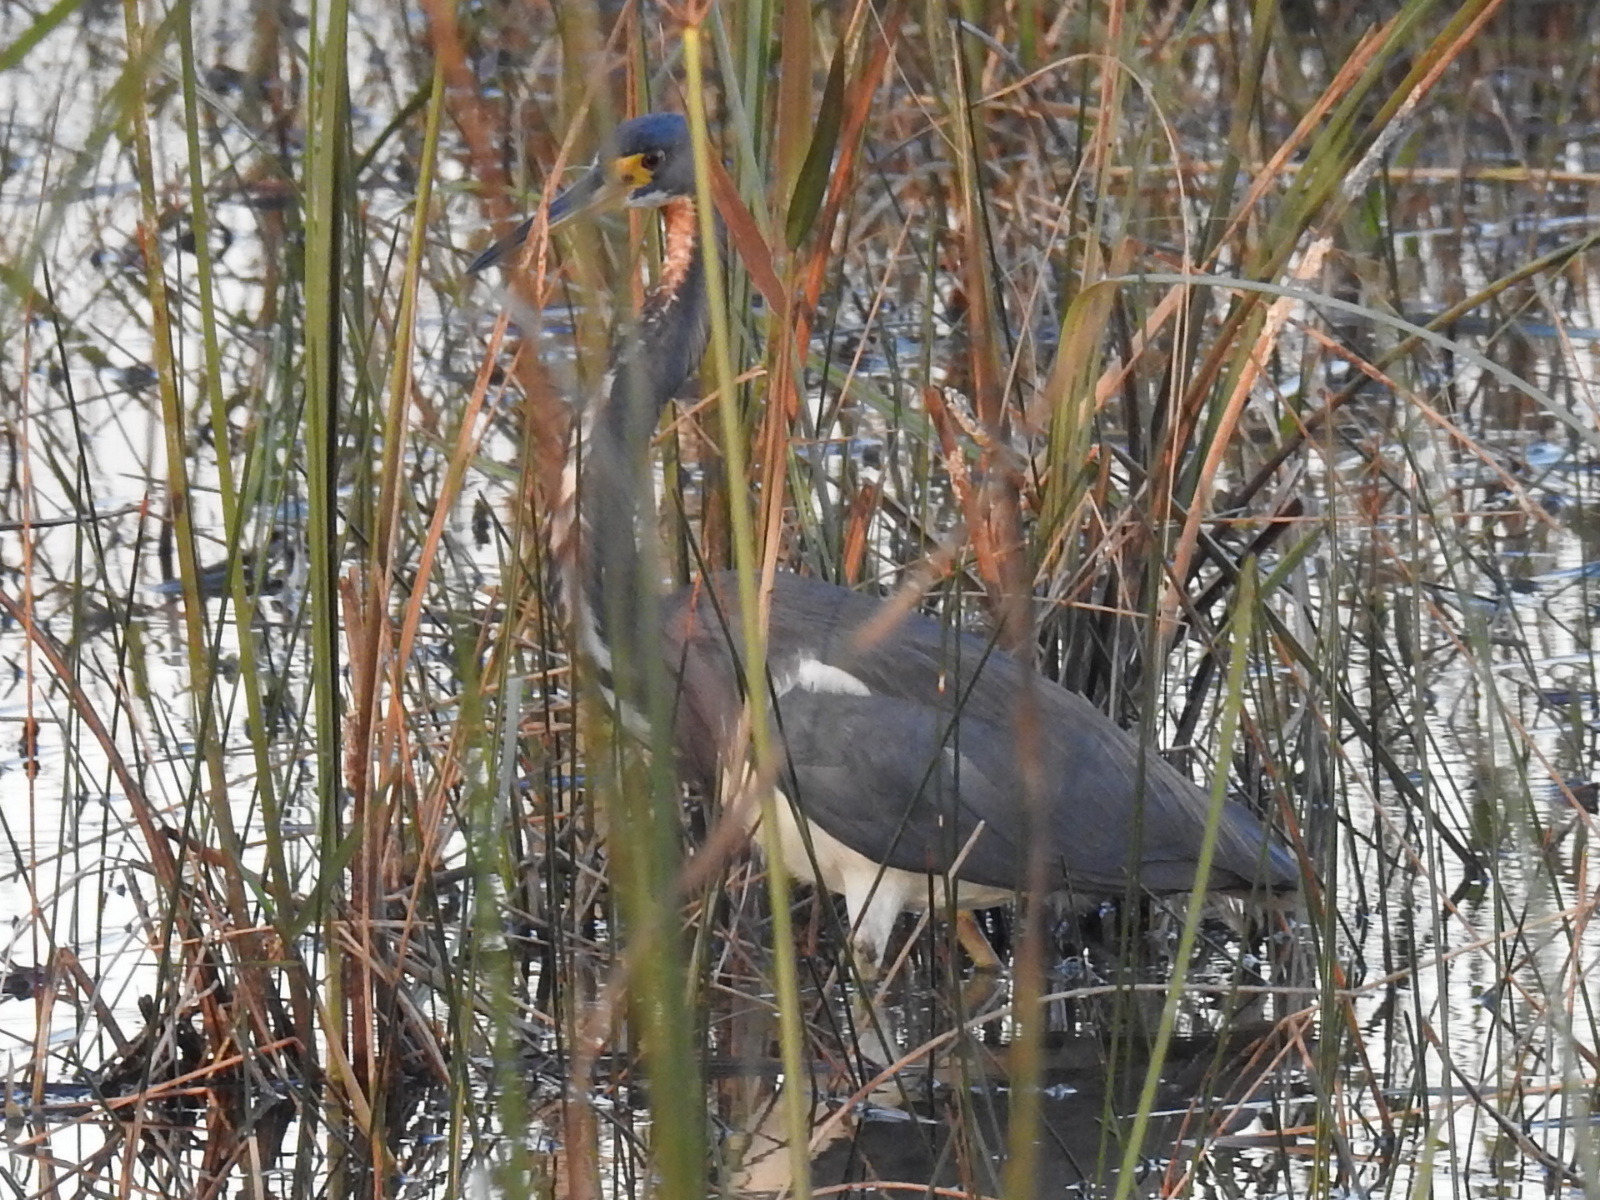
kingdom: Animalia
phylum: Chordata
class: Aves
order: Pelecaniformes
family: Ardeidae
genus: Egretta
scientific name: Egretta tricolor
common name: Tricolored heron
